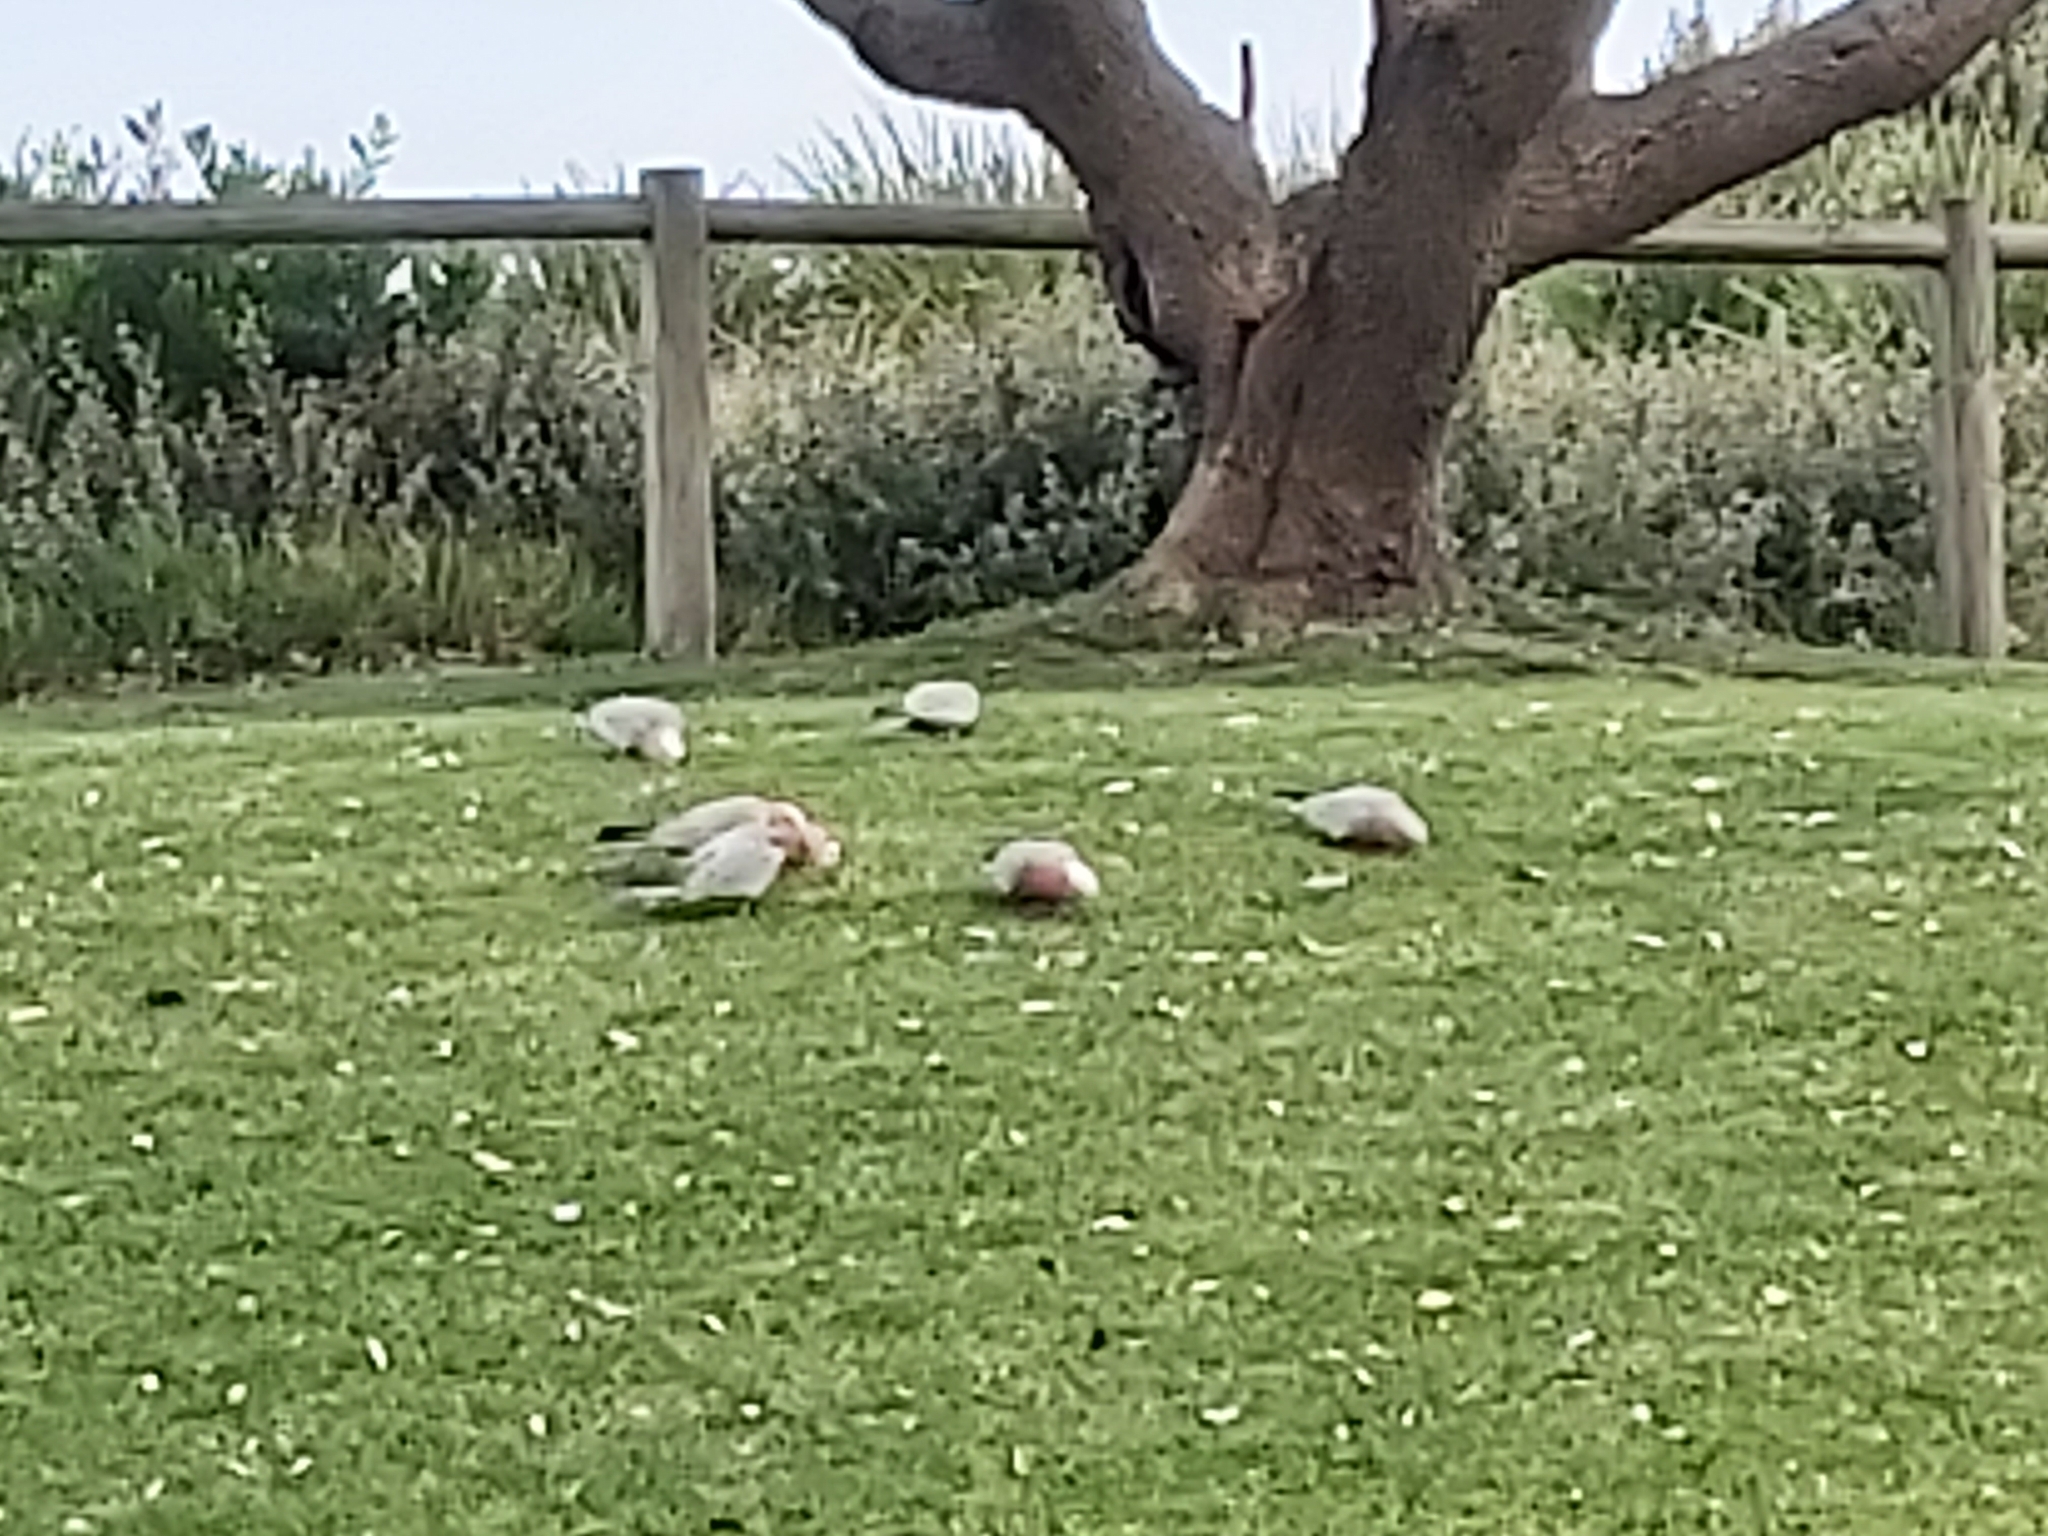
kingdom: Animalia
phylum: Chordata
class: Aves
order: Psittaciformes
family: Psittacidae
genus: Eolophus
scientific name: Eolophus roseicapilla
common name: Galah
